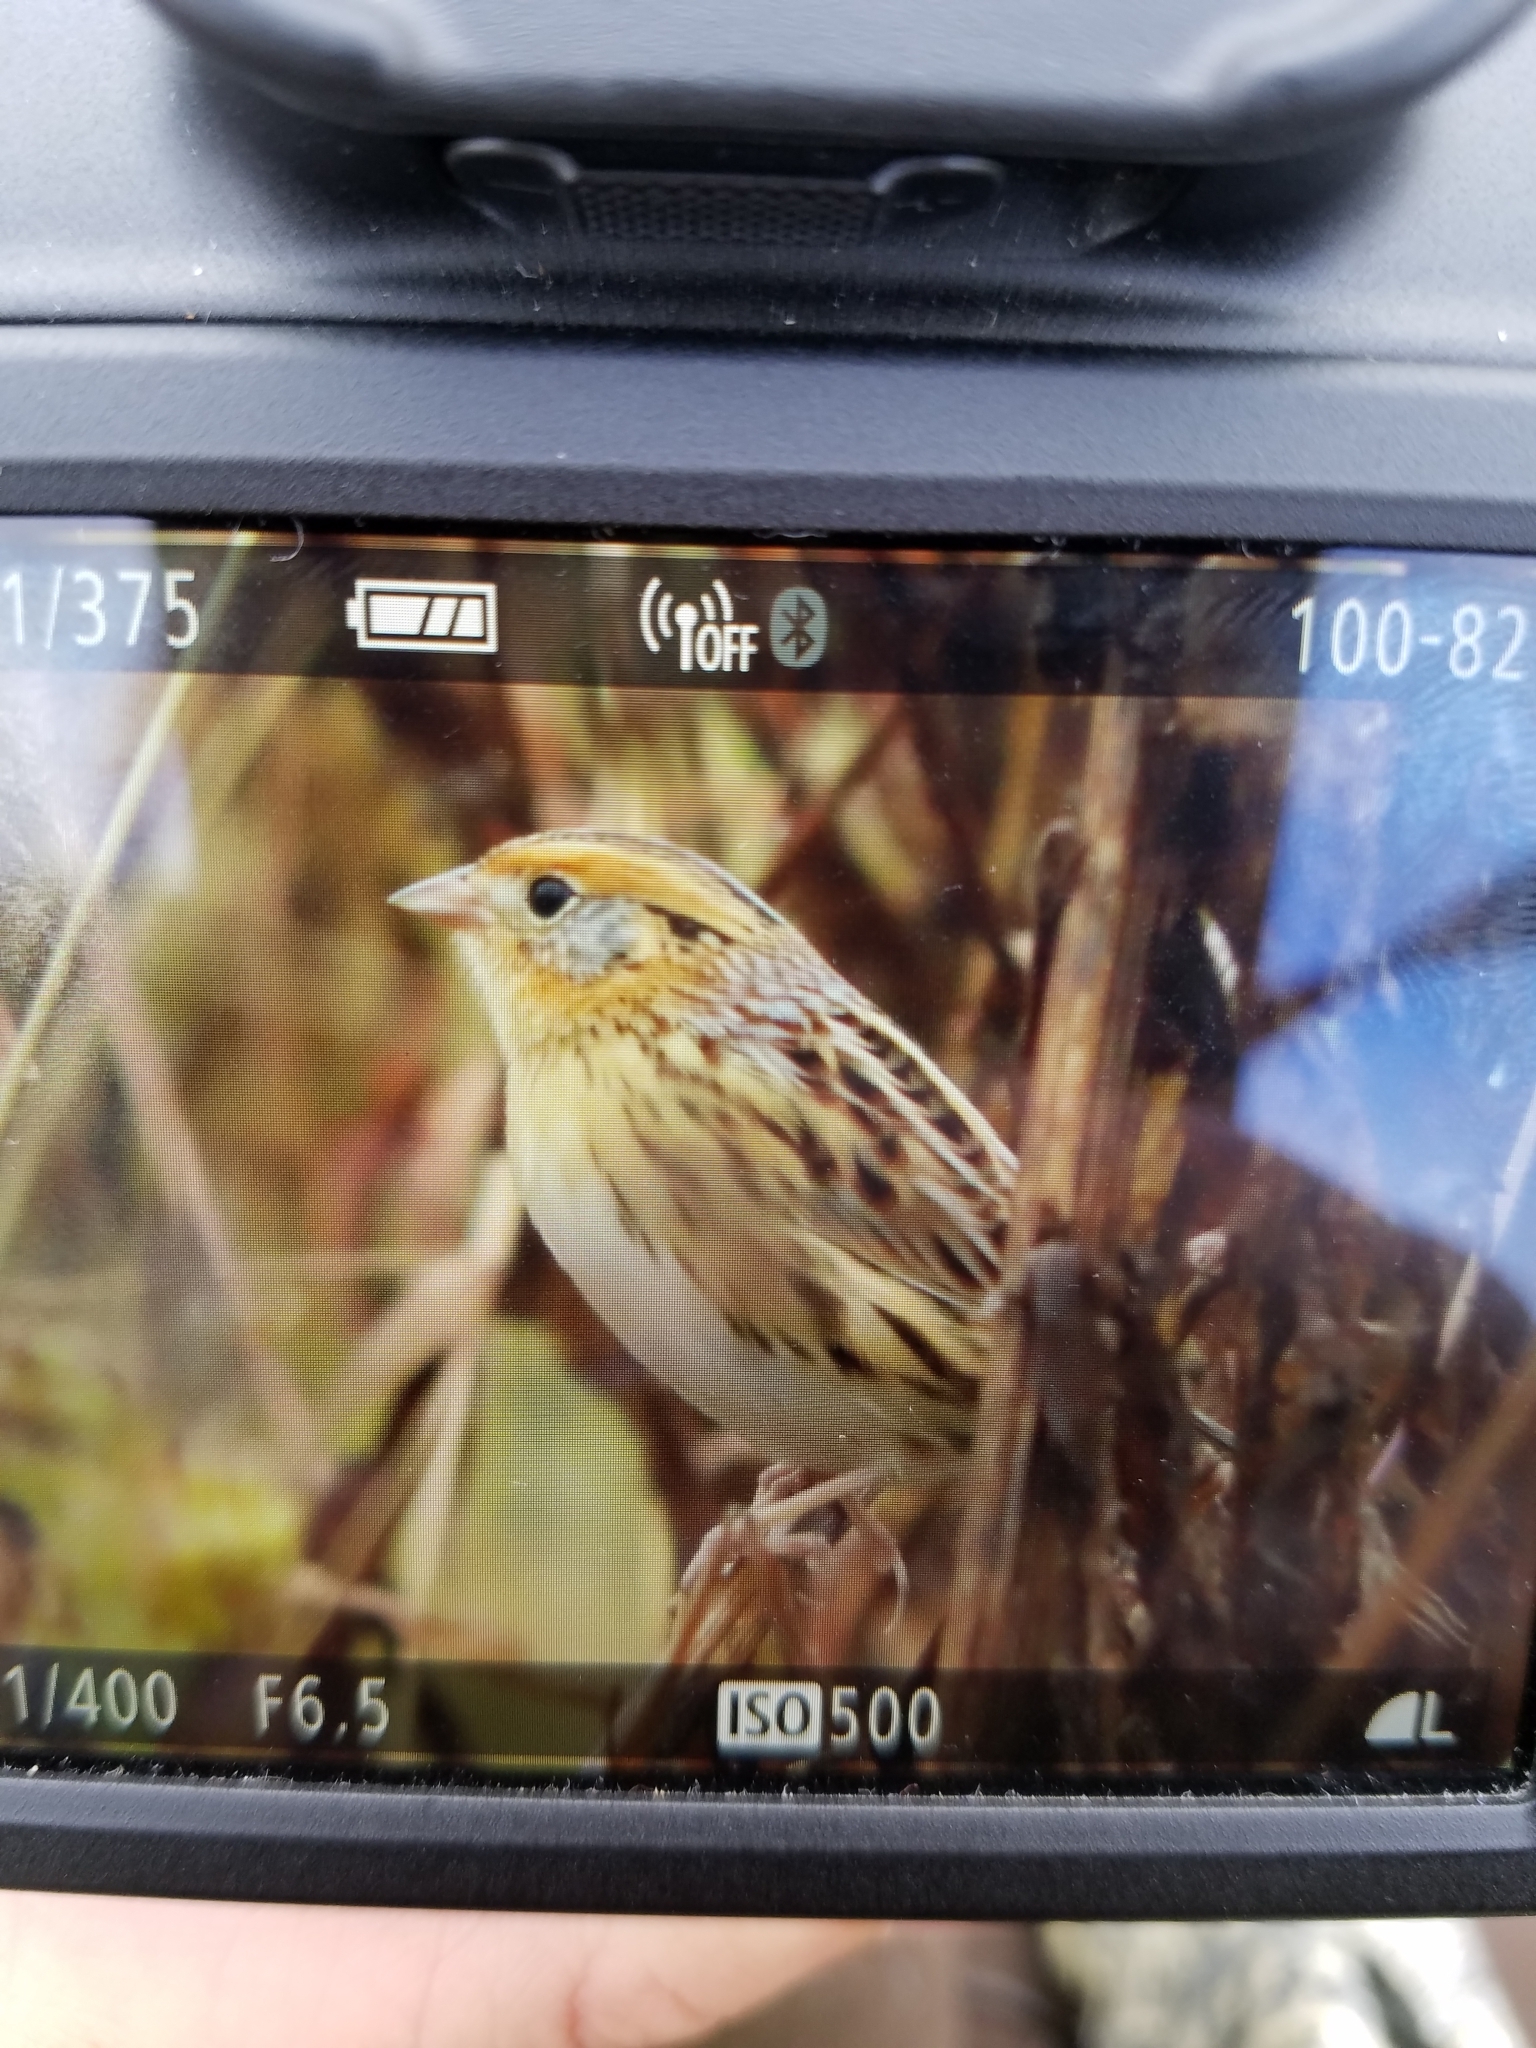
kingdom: Animalia
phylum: Chordata
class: Aves
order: Passeriformes
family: Passerellidae
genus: Ammospiza
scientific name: Ammospiza leconteii
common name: Le conte's sparrow
